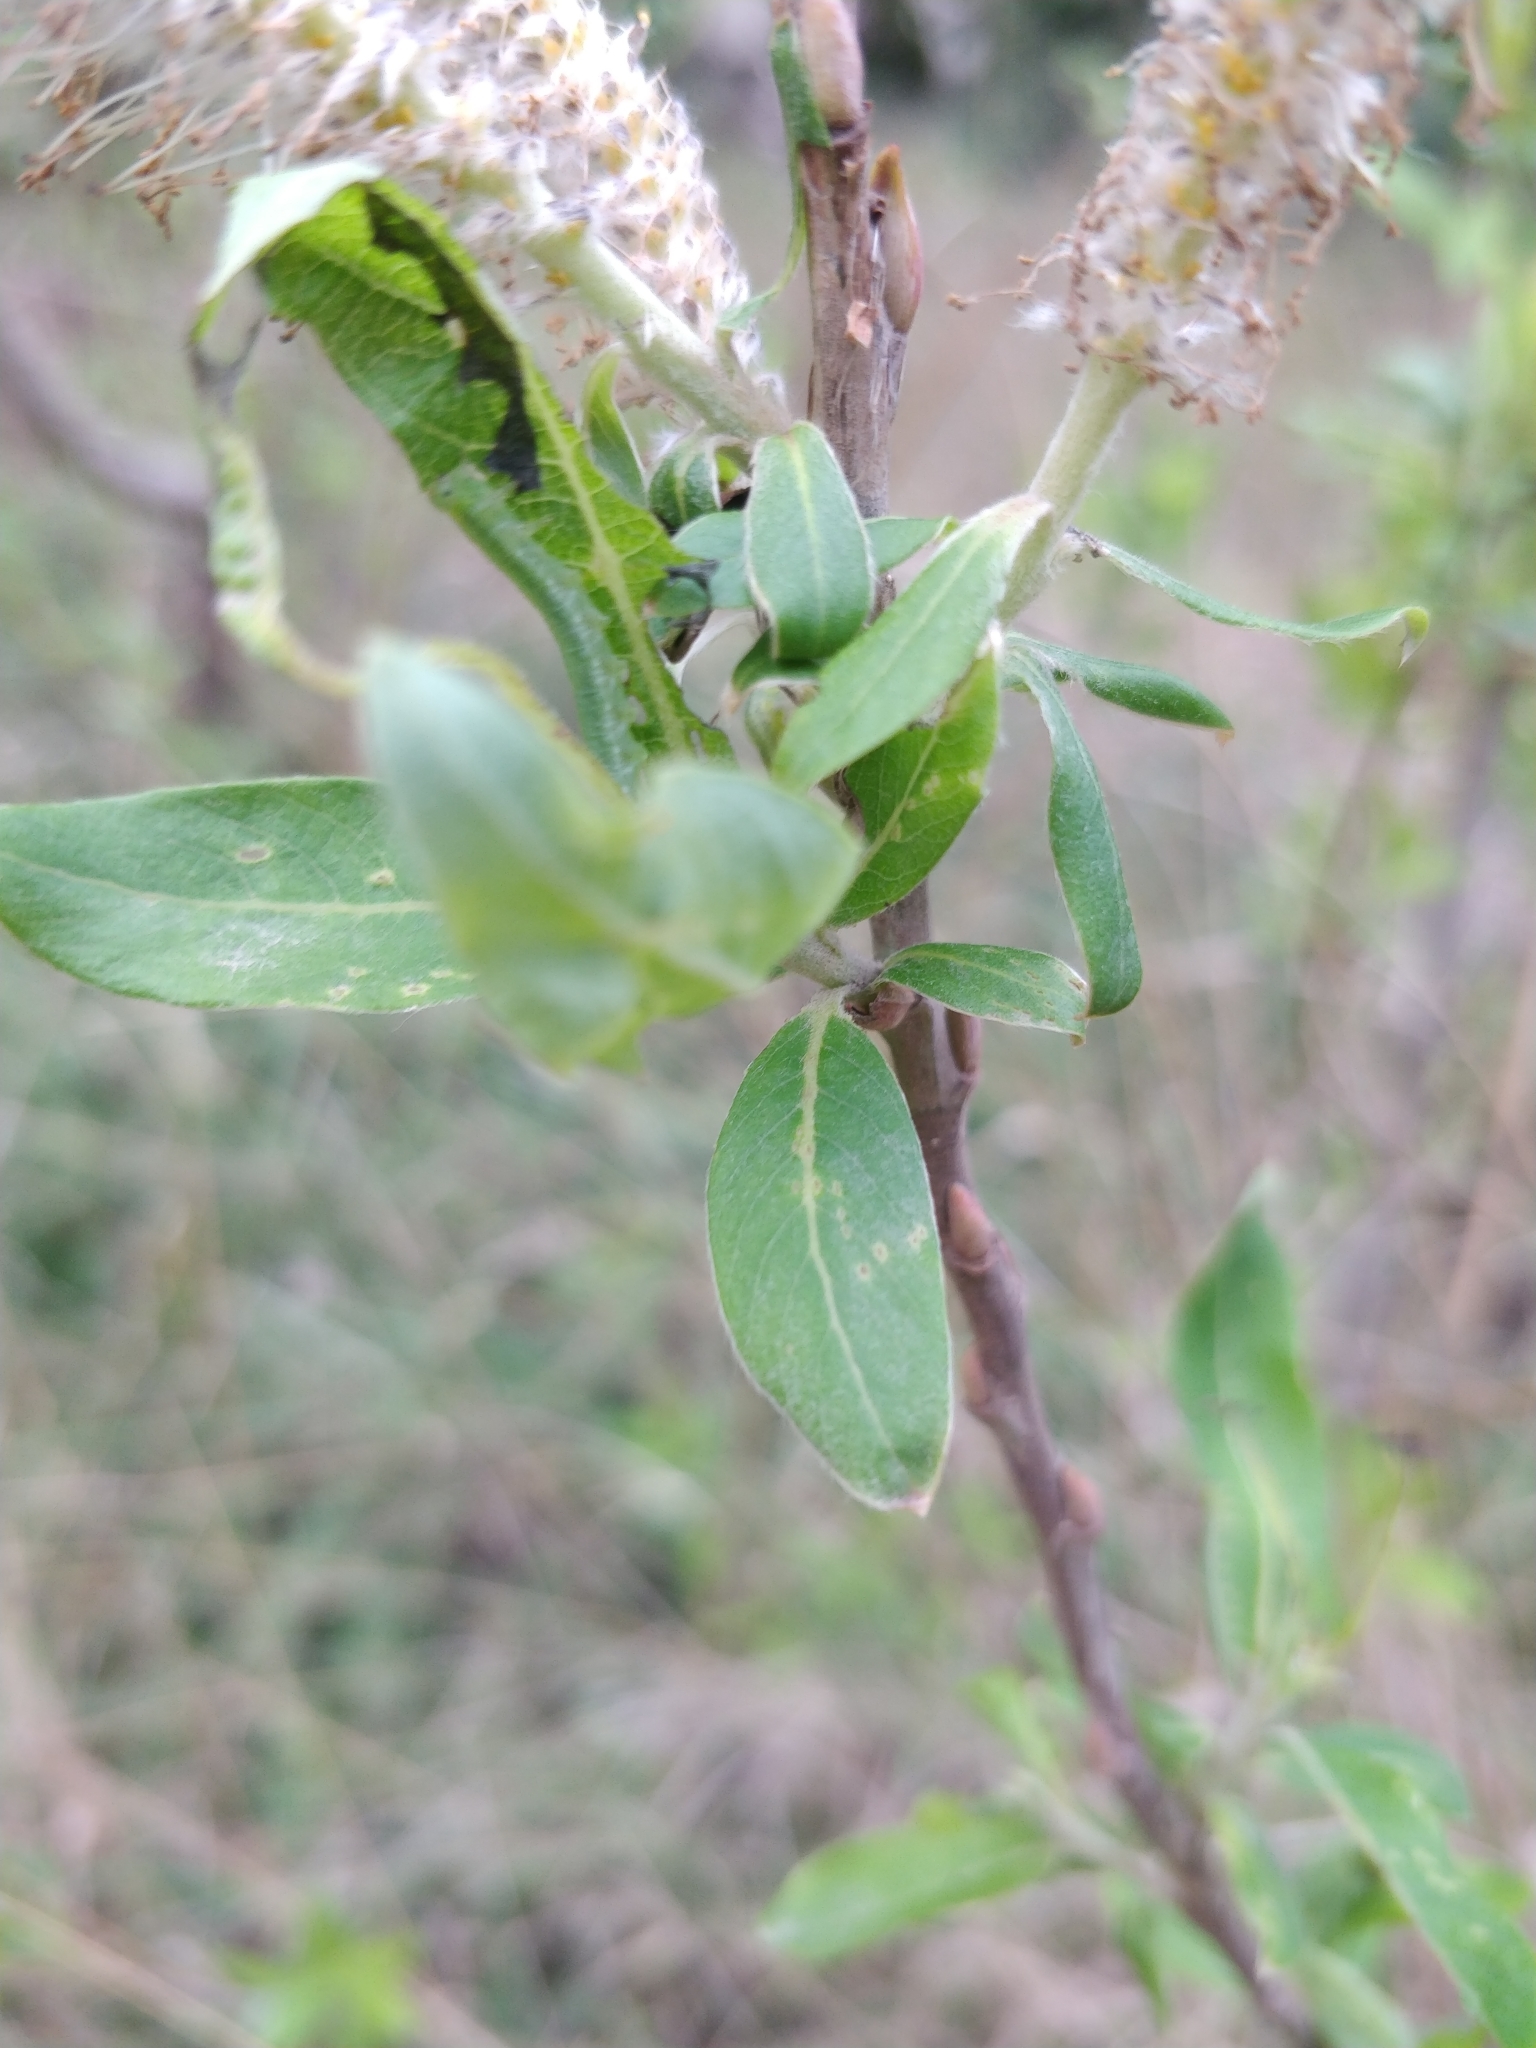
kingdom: Plantae
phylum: Tracheophyta
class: Magnoliopsida
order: Malpighiales
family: Salicaceae
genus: Salix
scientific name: Salix canariensis
